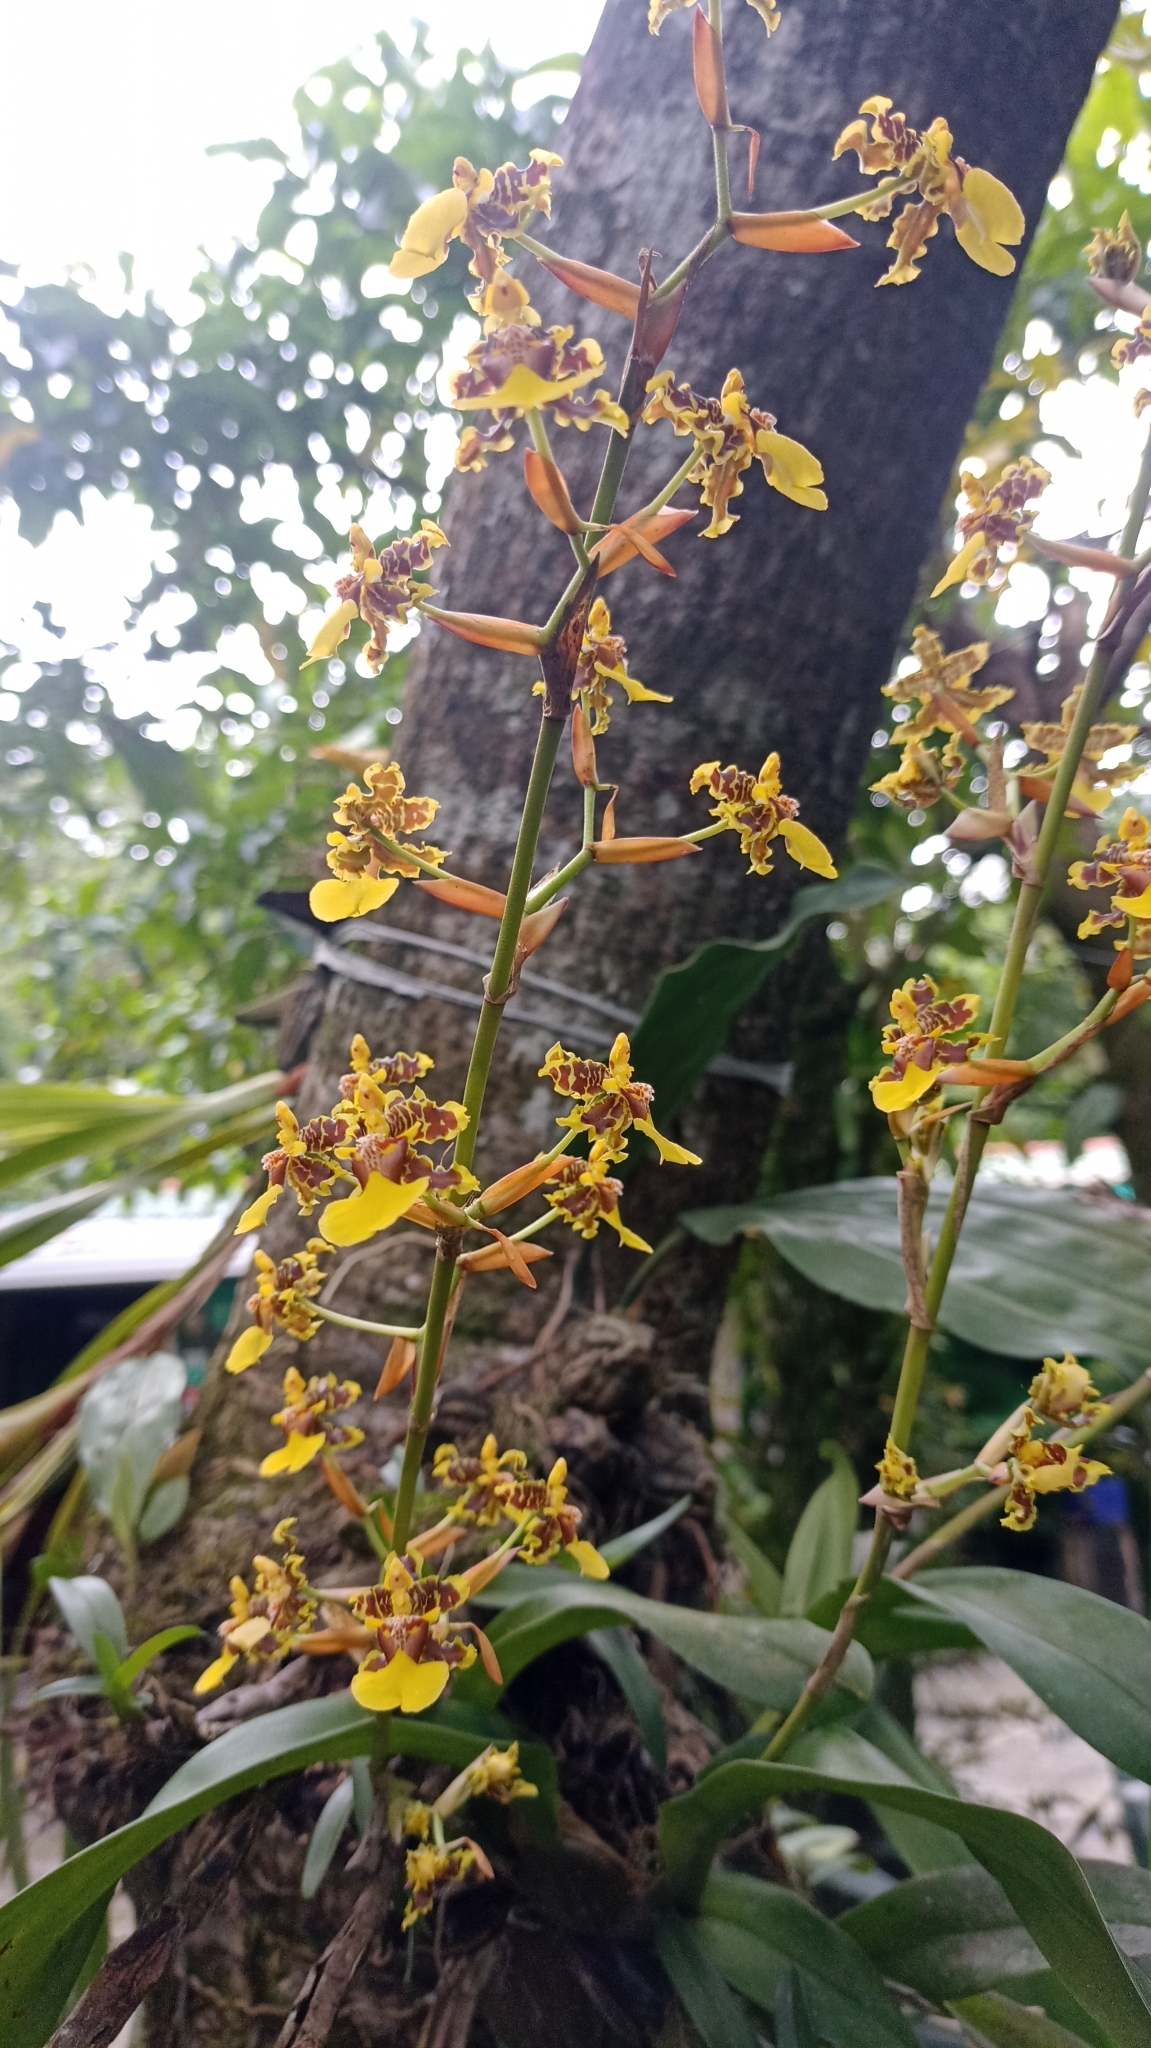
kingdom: Plantae
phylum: Tracheophyta
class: Liliopsida
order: Asparagales
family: Orchidaceae
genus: Oncidium
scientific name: Oncidium bracteatum
